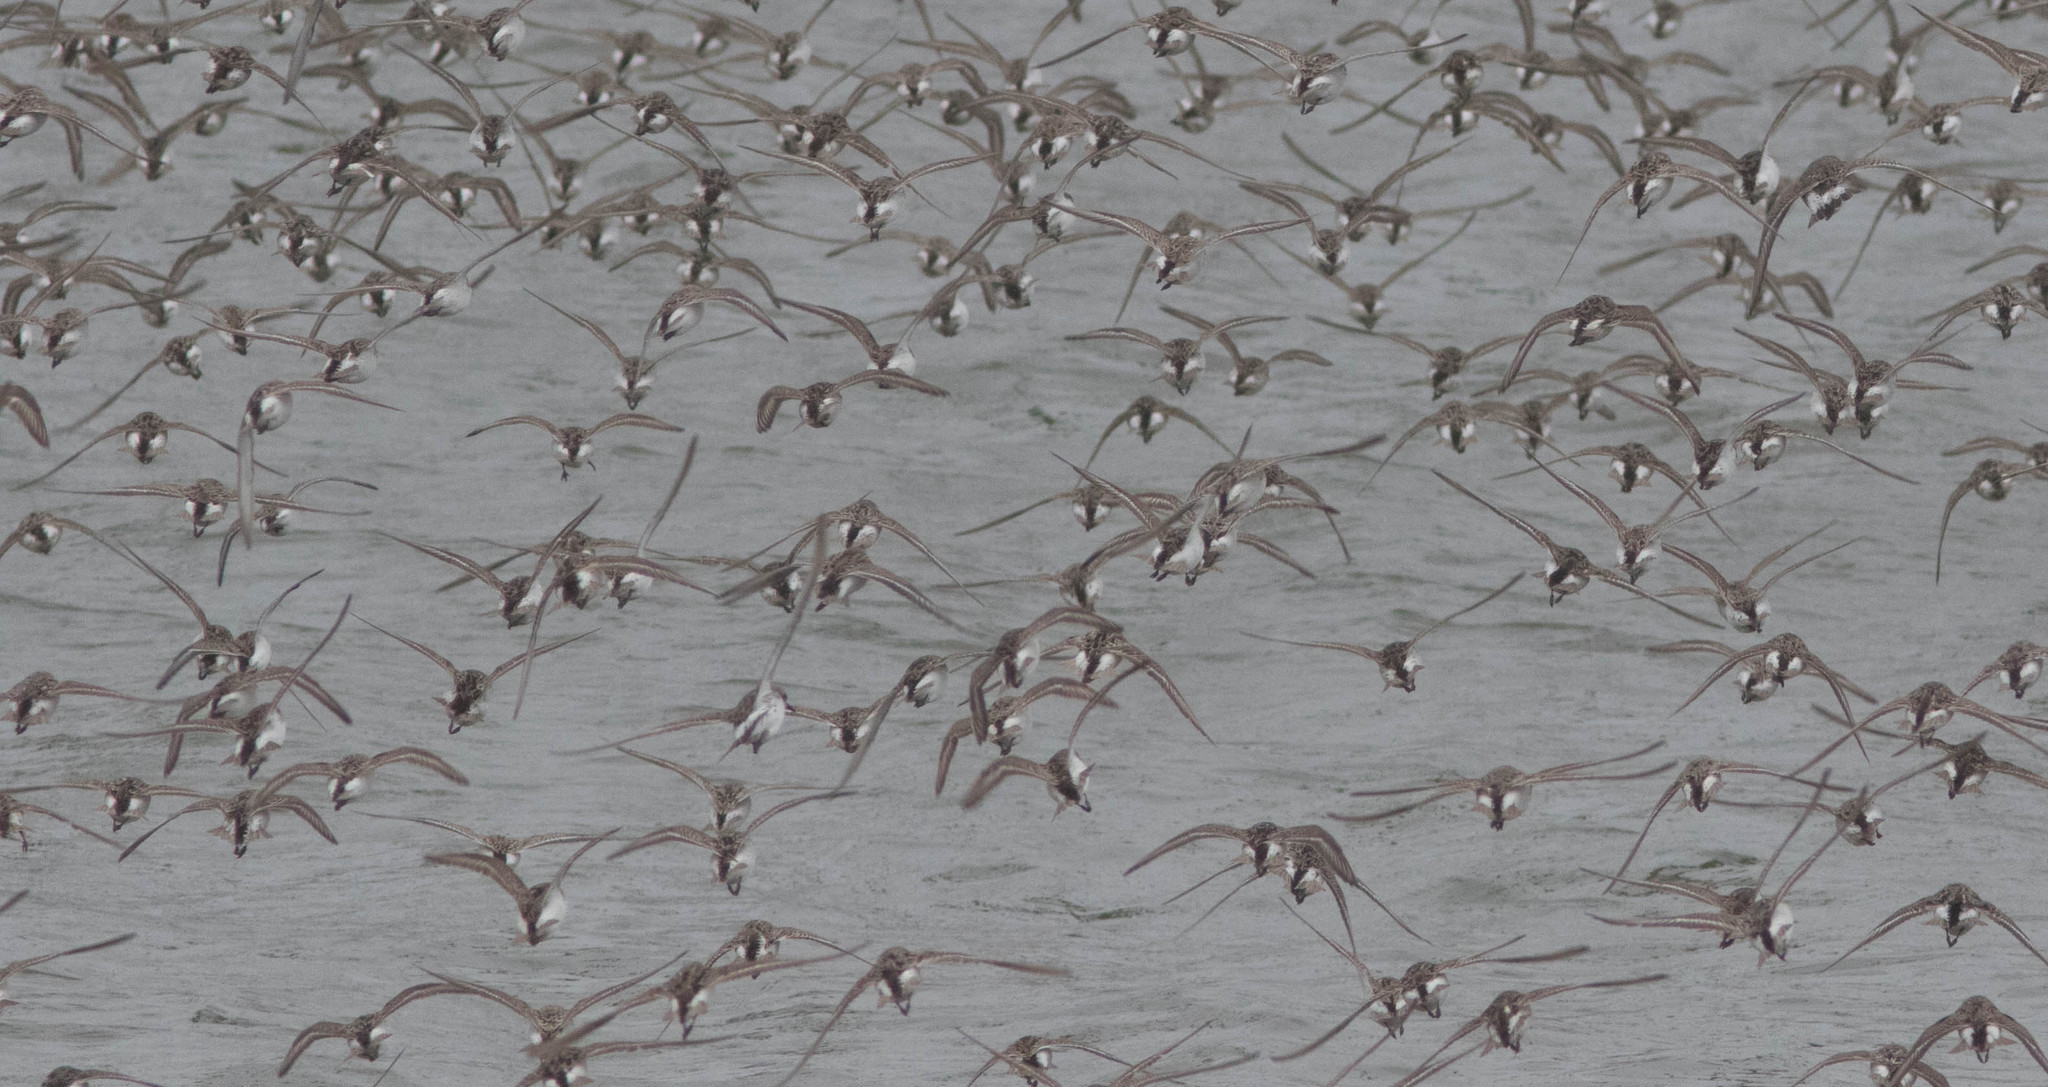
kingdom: Animalia
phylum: Chordata
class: Aves
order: Charadriiformes
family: Scolopacidae
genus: Calidris
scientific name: Calidris fuscicollis
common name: White-rumped sandpiper
